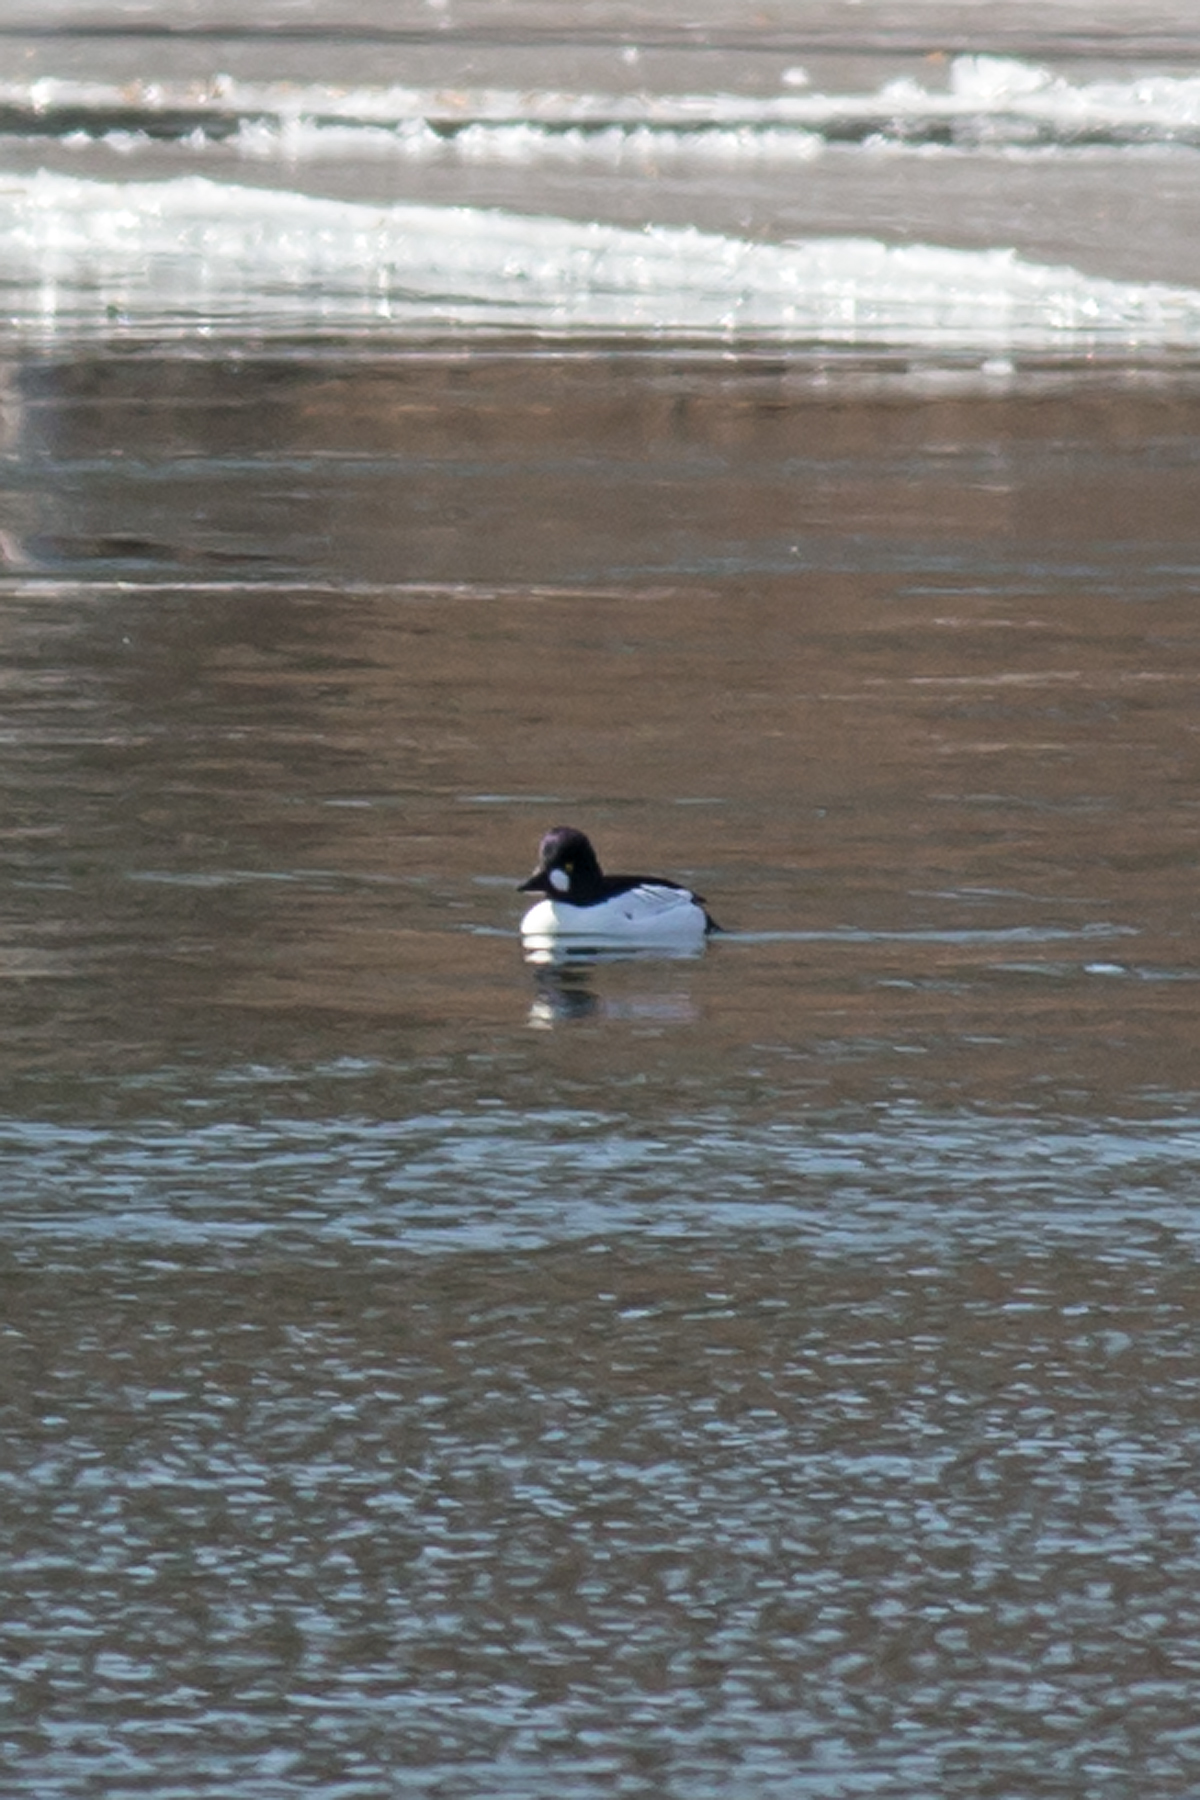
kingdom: Animalia
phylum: Chordata
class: Aves
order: Anseriformes
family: Anatidae
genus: Bucephala
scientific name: Bucephala clangula
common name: Common goldeneye
